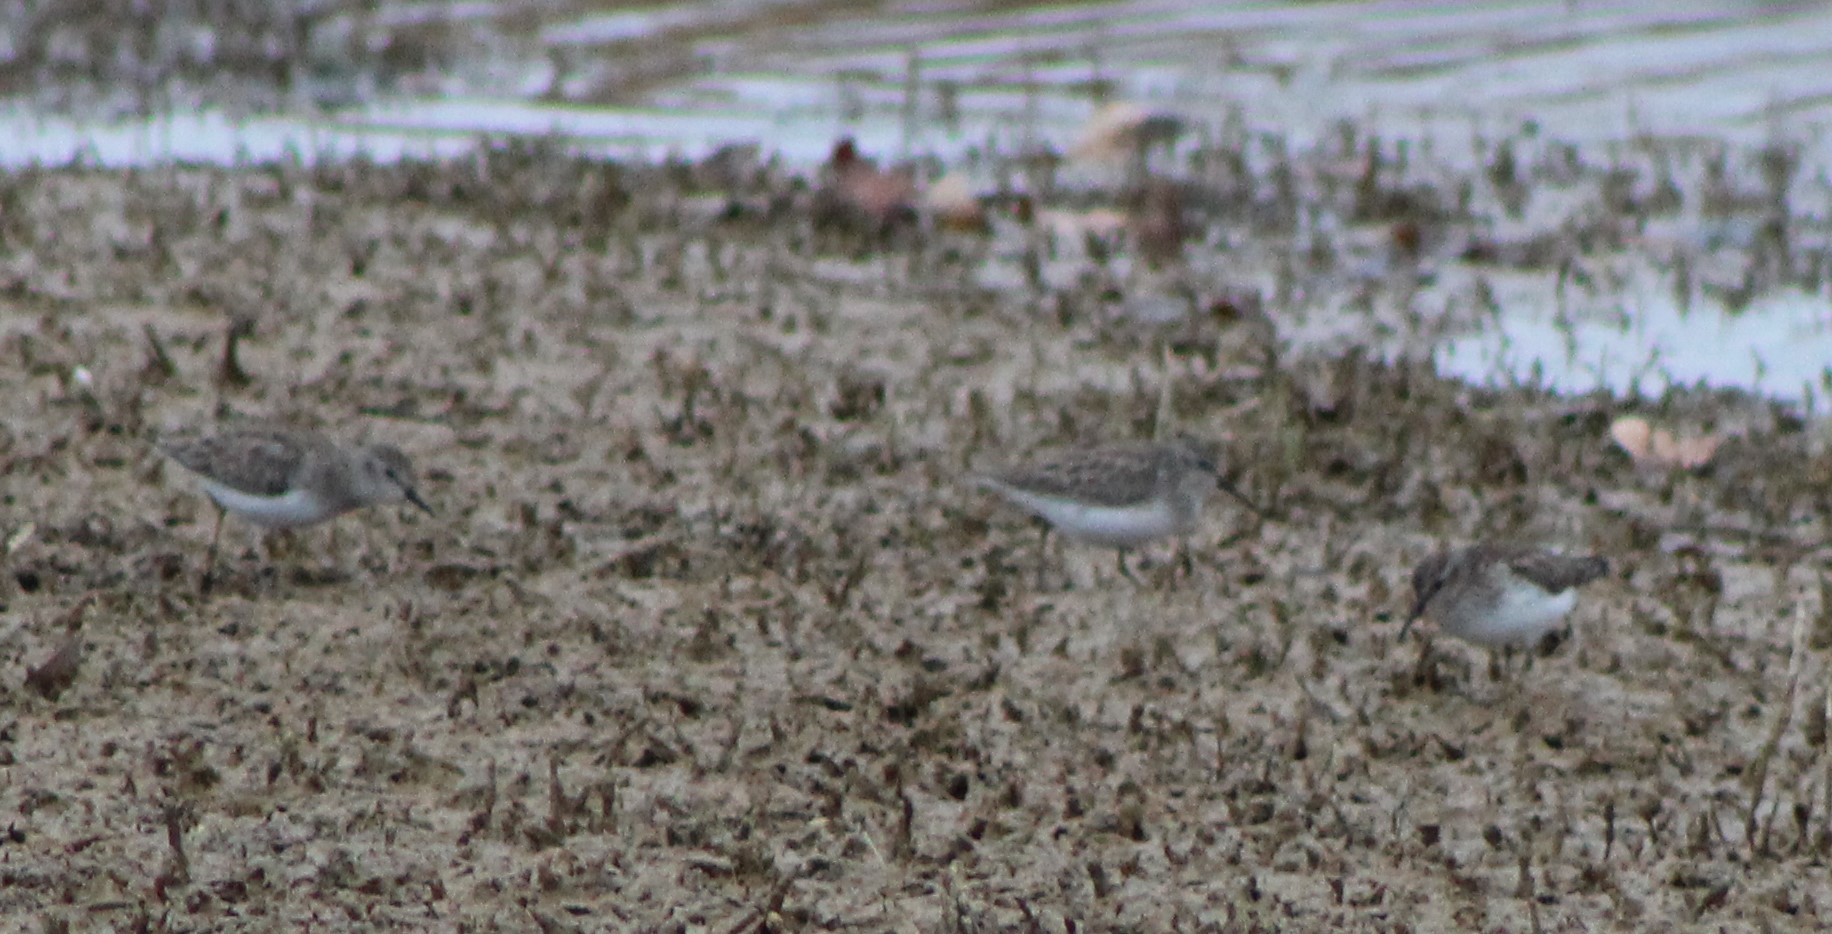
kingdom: Animalia
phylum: Chordata
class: Aves
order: Charadriiformes
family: Scolopacidae
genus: Calidris
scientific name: Calidris minutilla
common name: Least sandpiper
